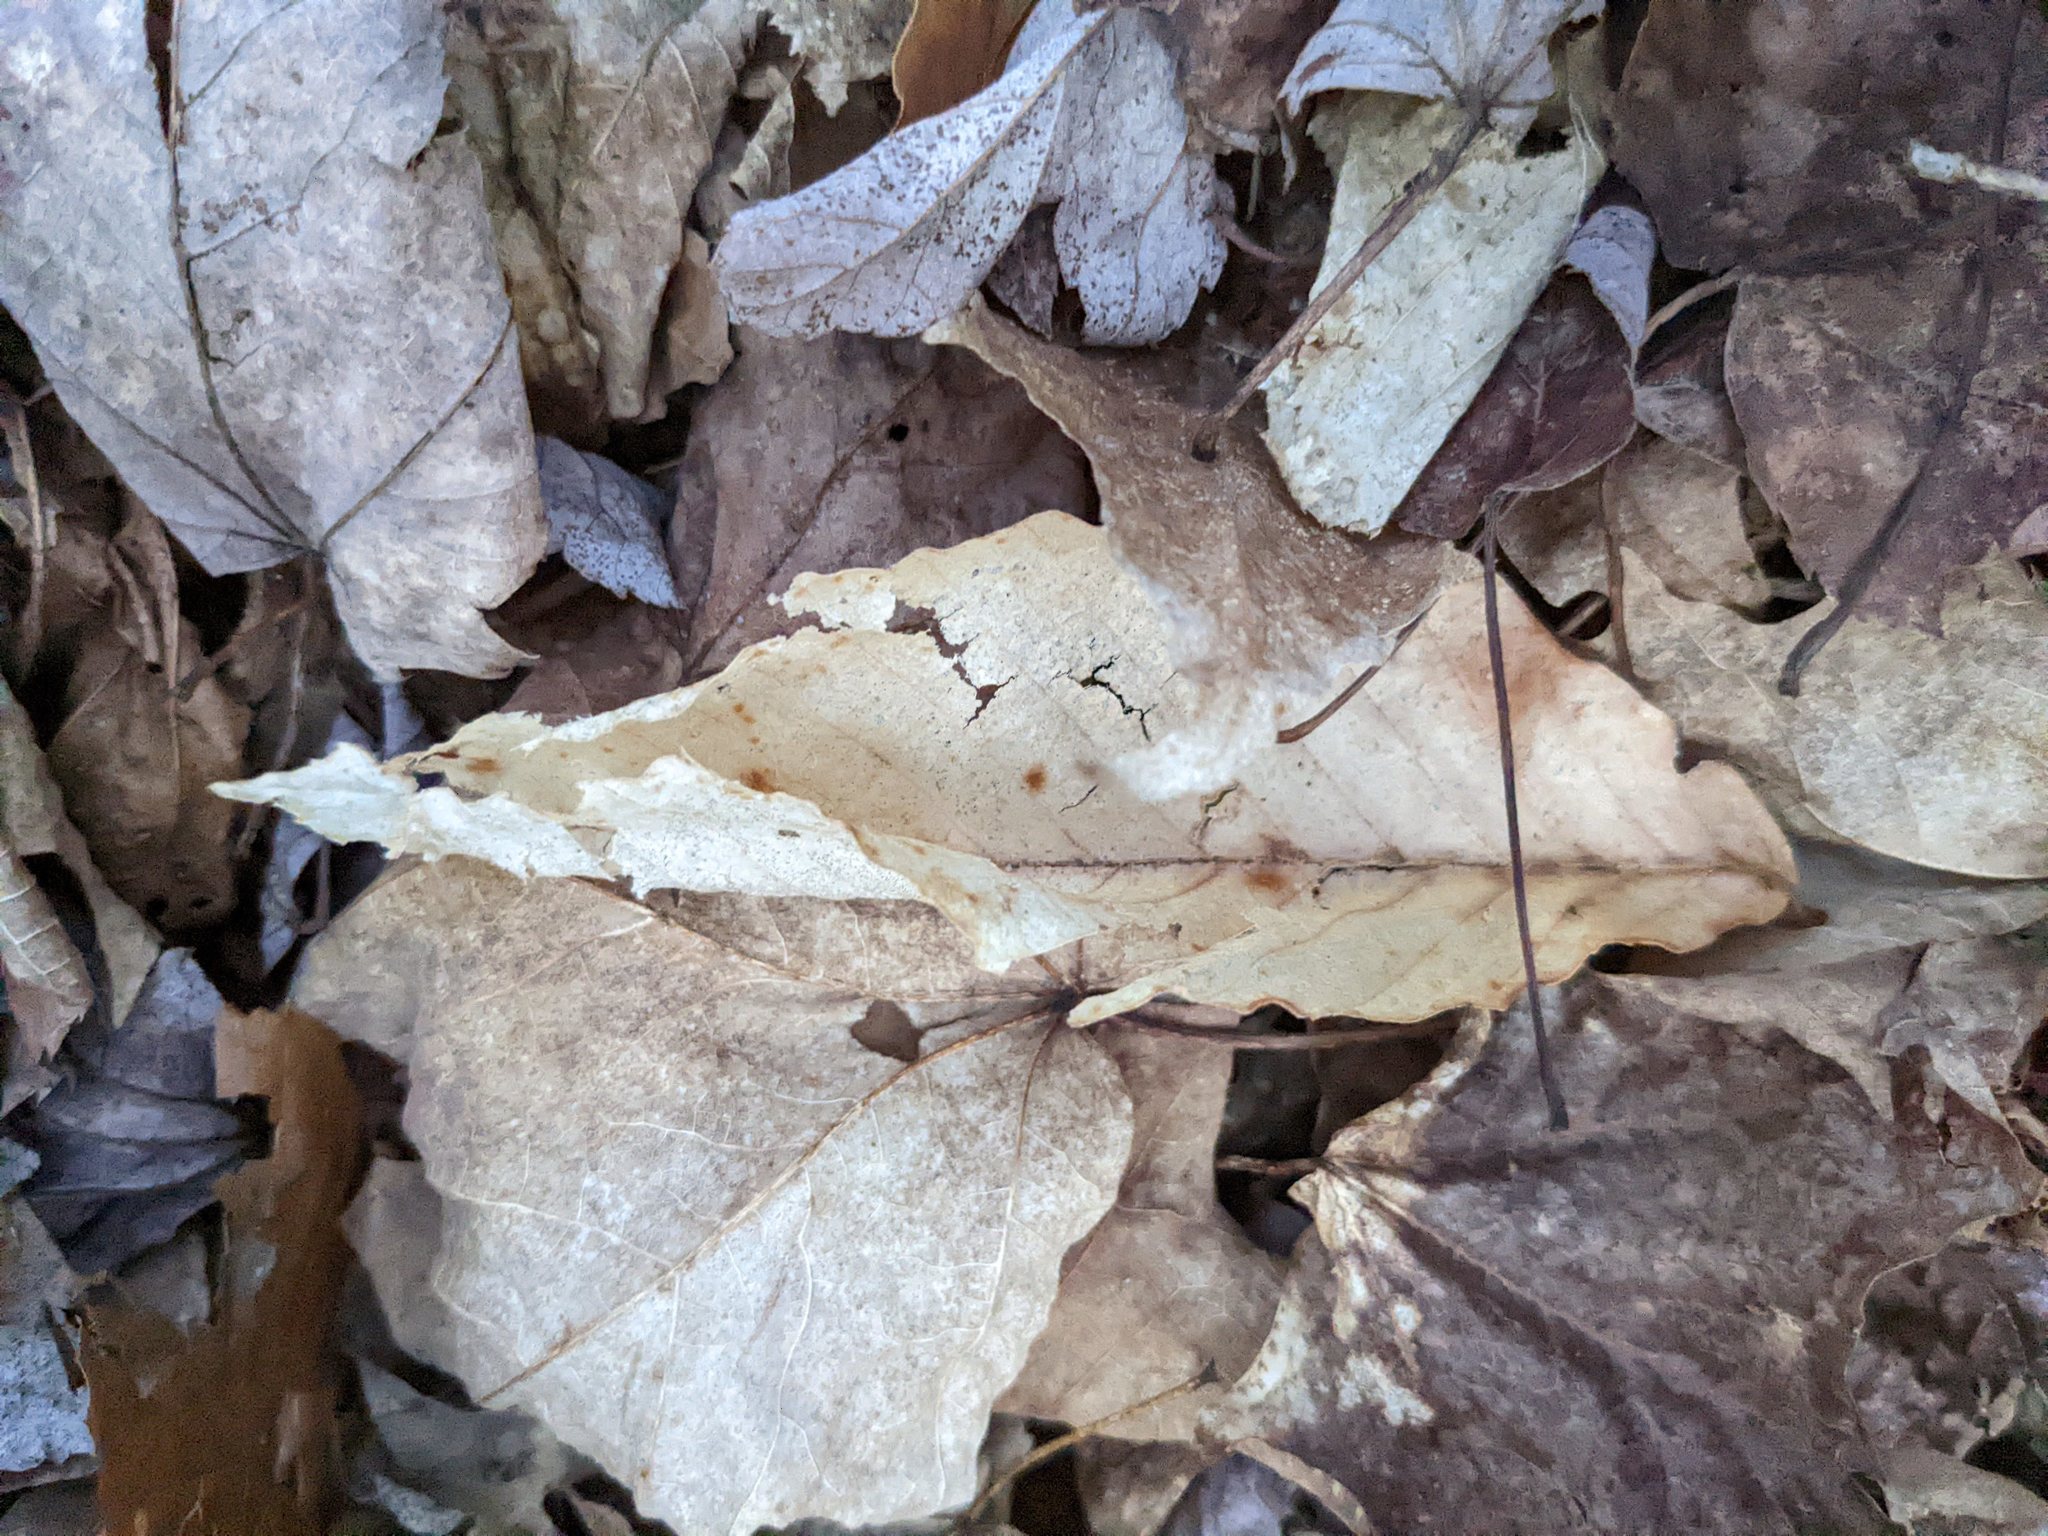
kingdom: Plantae
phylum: Tracheophyta
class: Magnoliopsida
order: Fagales
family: Fagaceae
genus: Fagus
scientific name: Fagus grandifolia
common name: American beech
